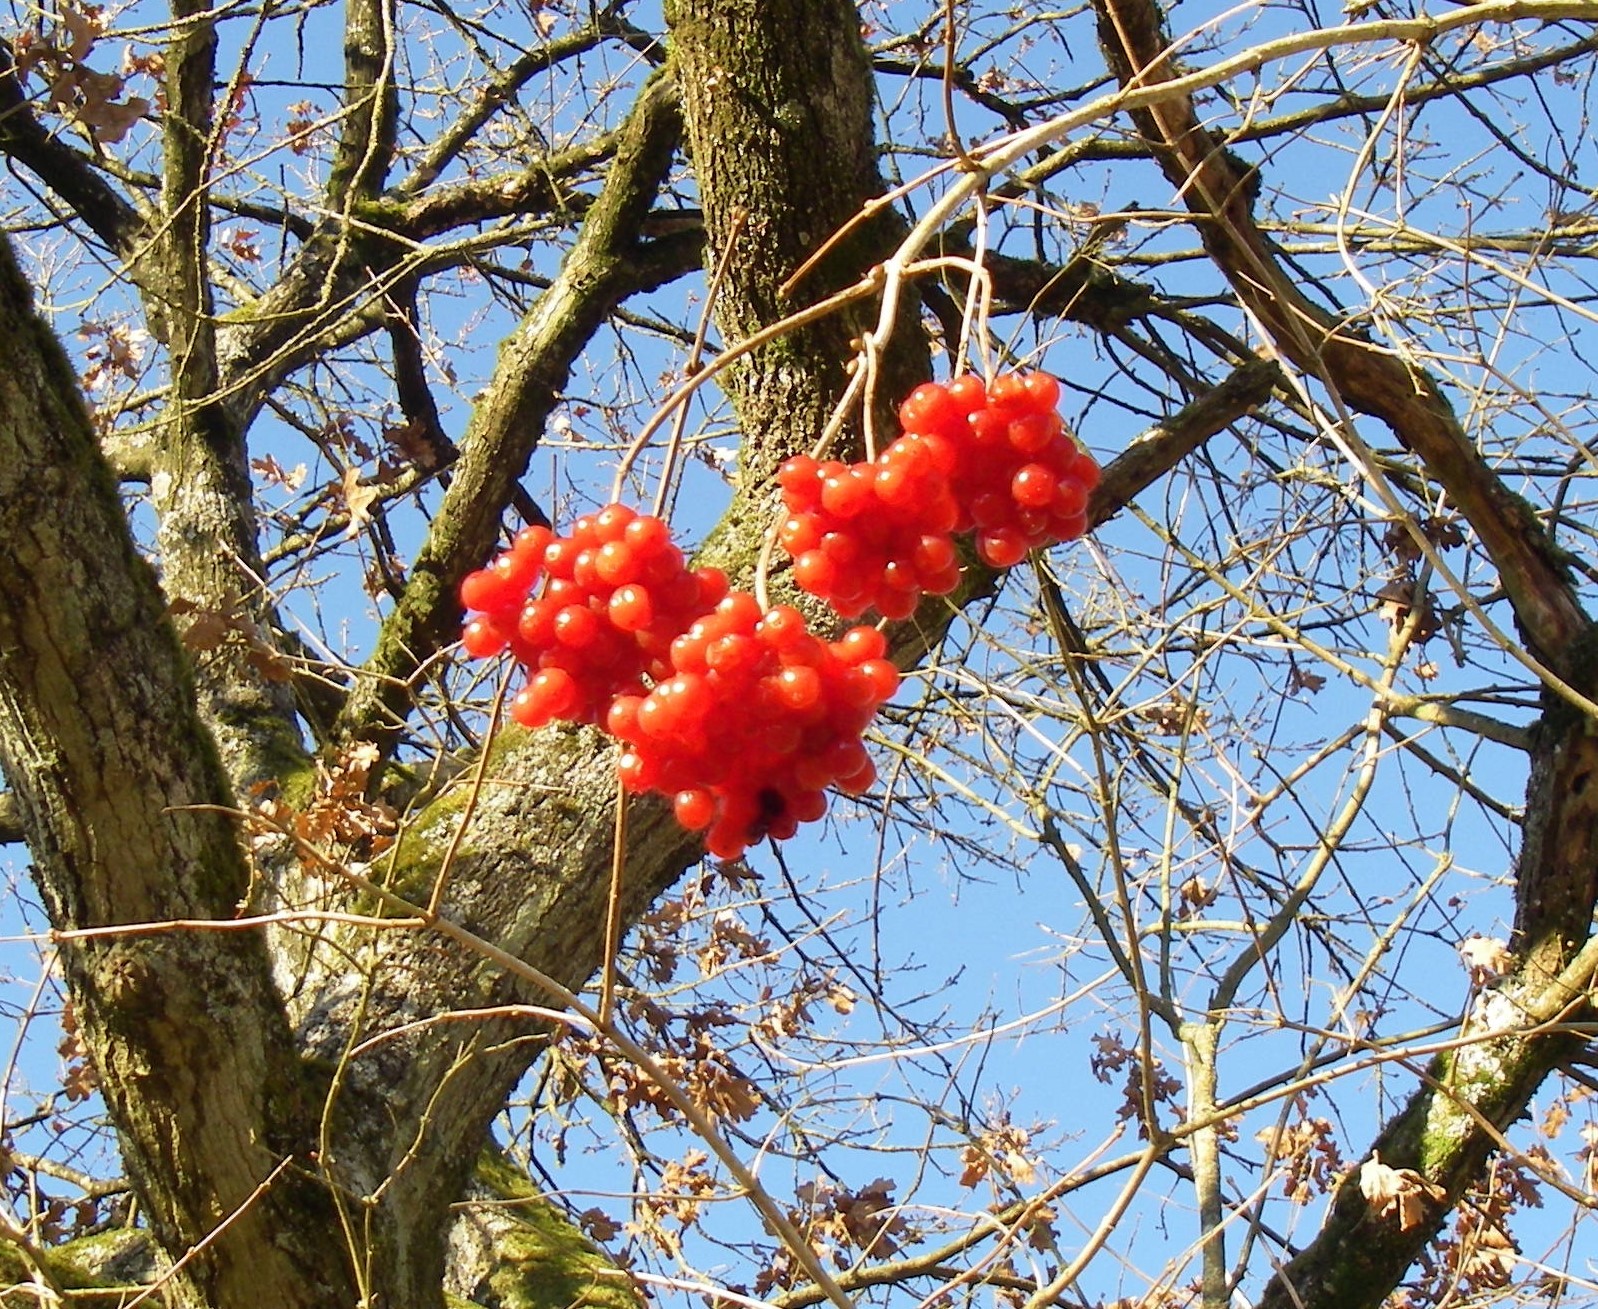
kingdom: Plantae
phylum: Tracheophyta
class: Magnoliopsida
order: Dipsacales
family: Viburnaceae
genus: Viburnum
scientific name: Viburnum opulus
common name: Guelder-rose
